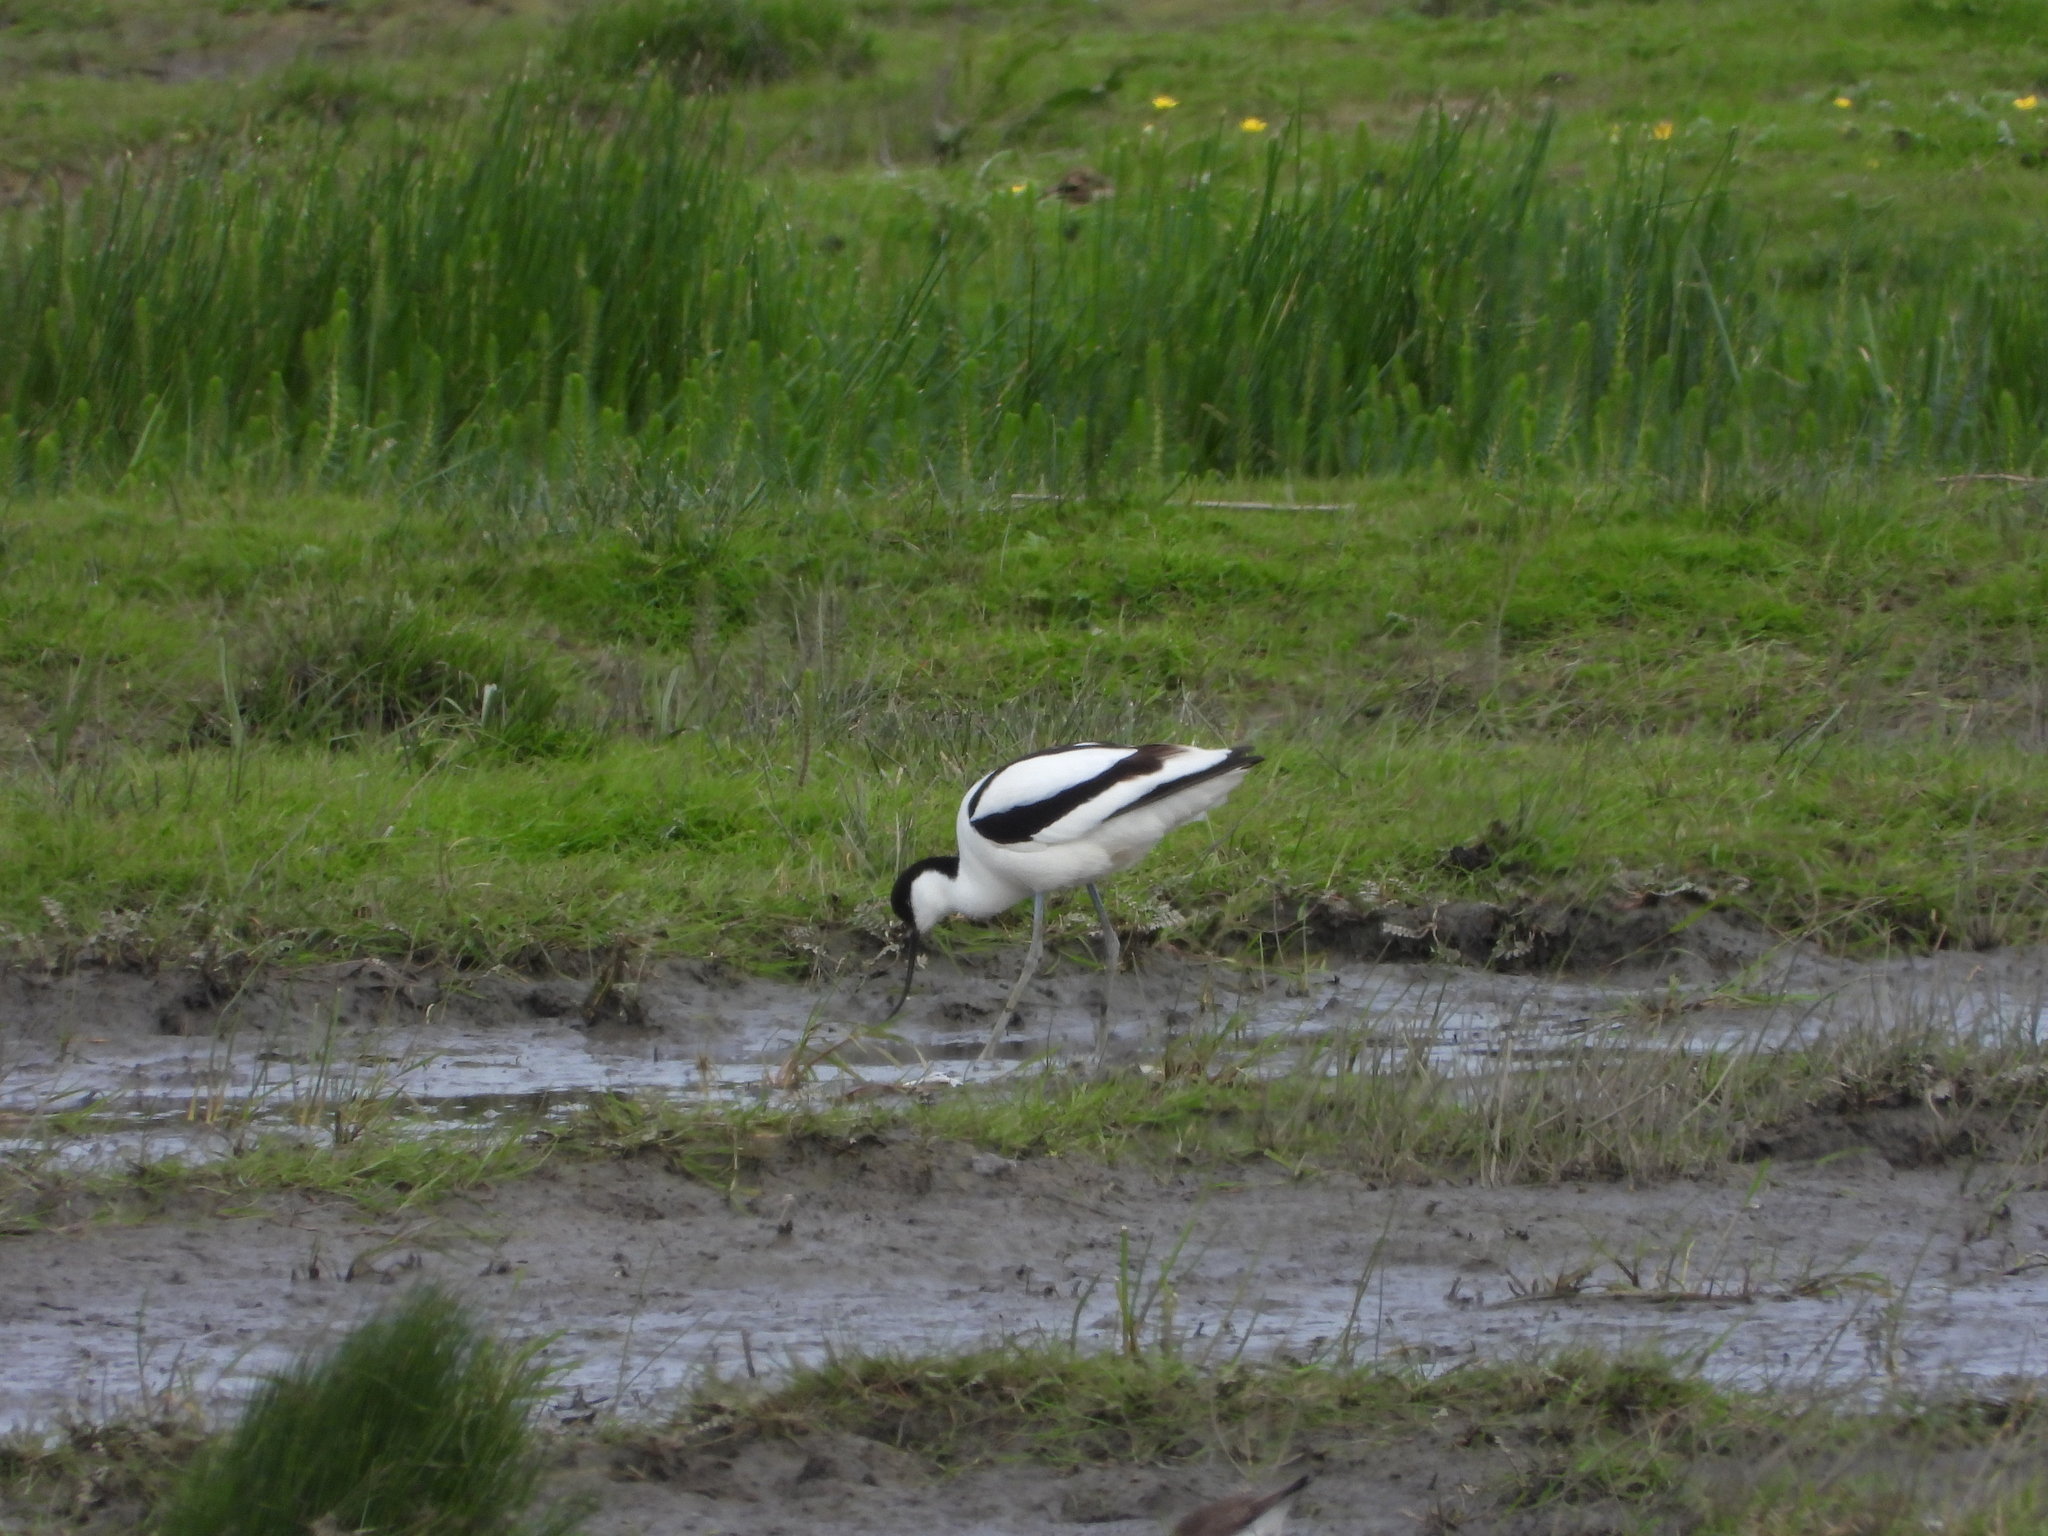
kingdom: Animalia
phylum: Chordata
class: Aves
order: Charadriiformes
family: Recurvirostridae
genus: Recurvirostra
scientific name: Recurvirostra avosetta
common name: Pied avocet
